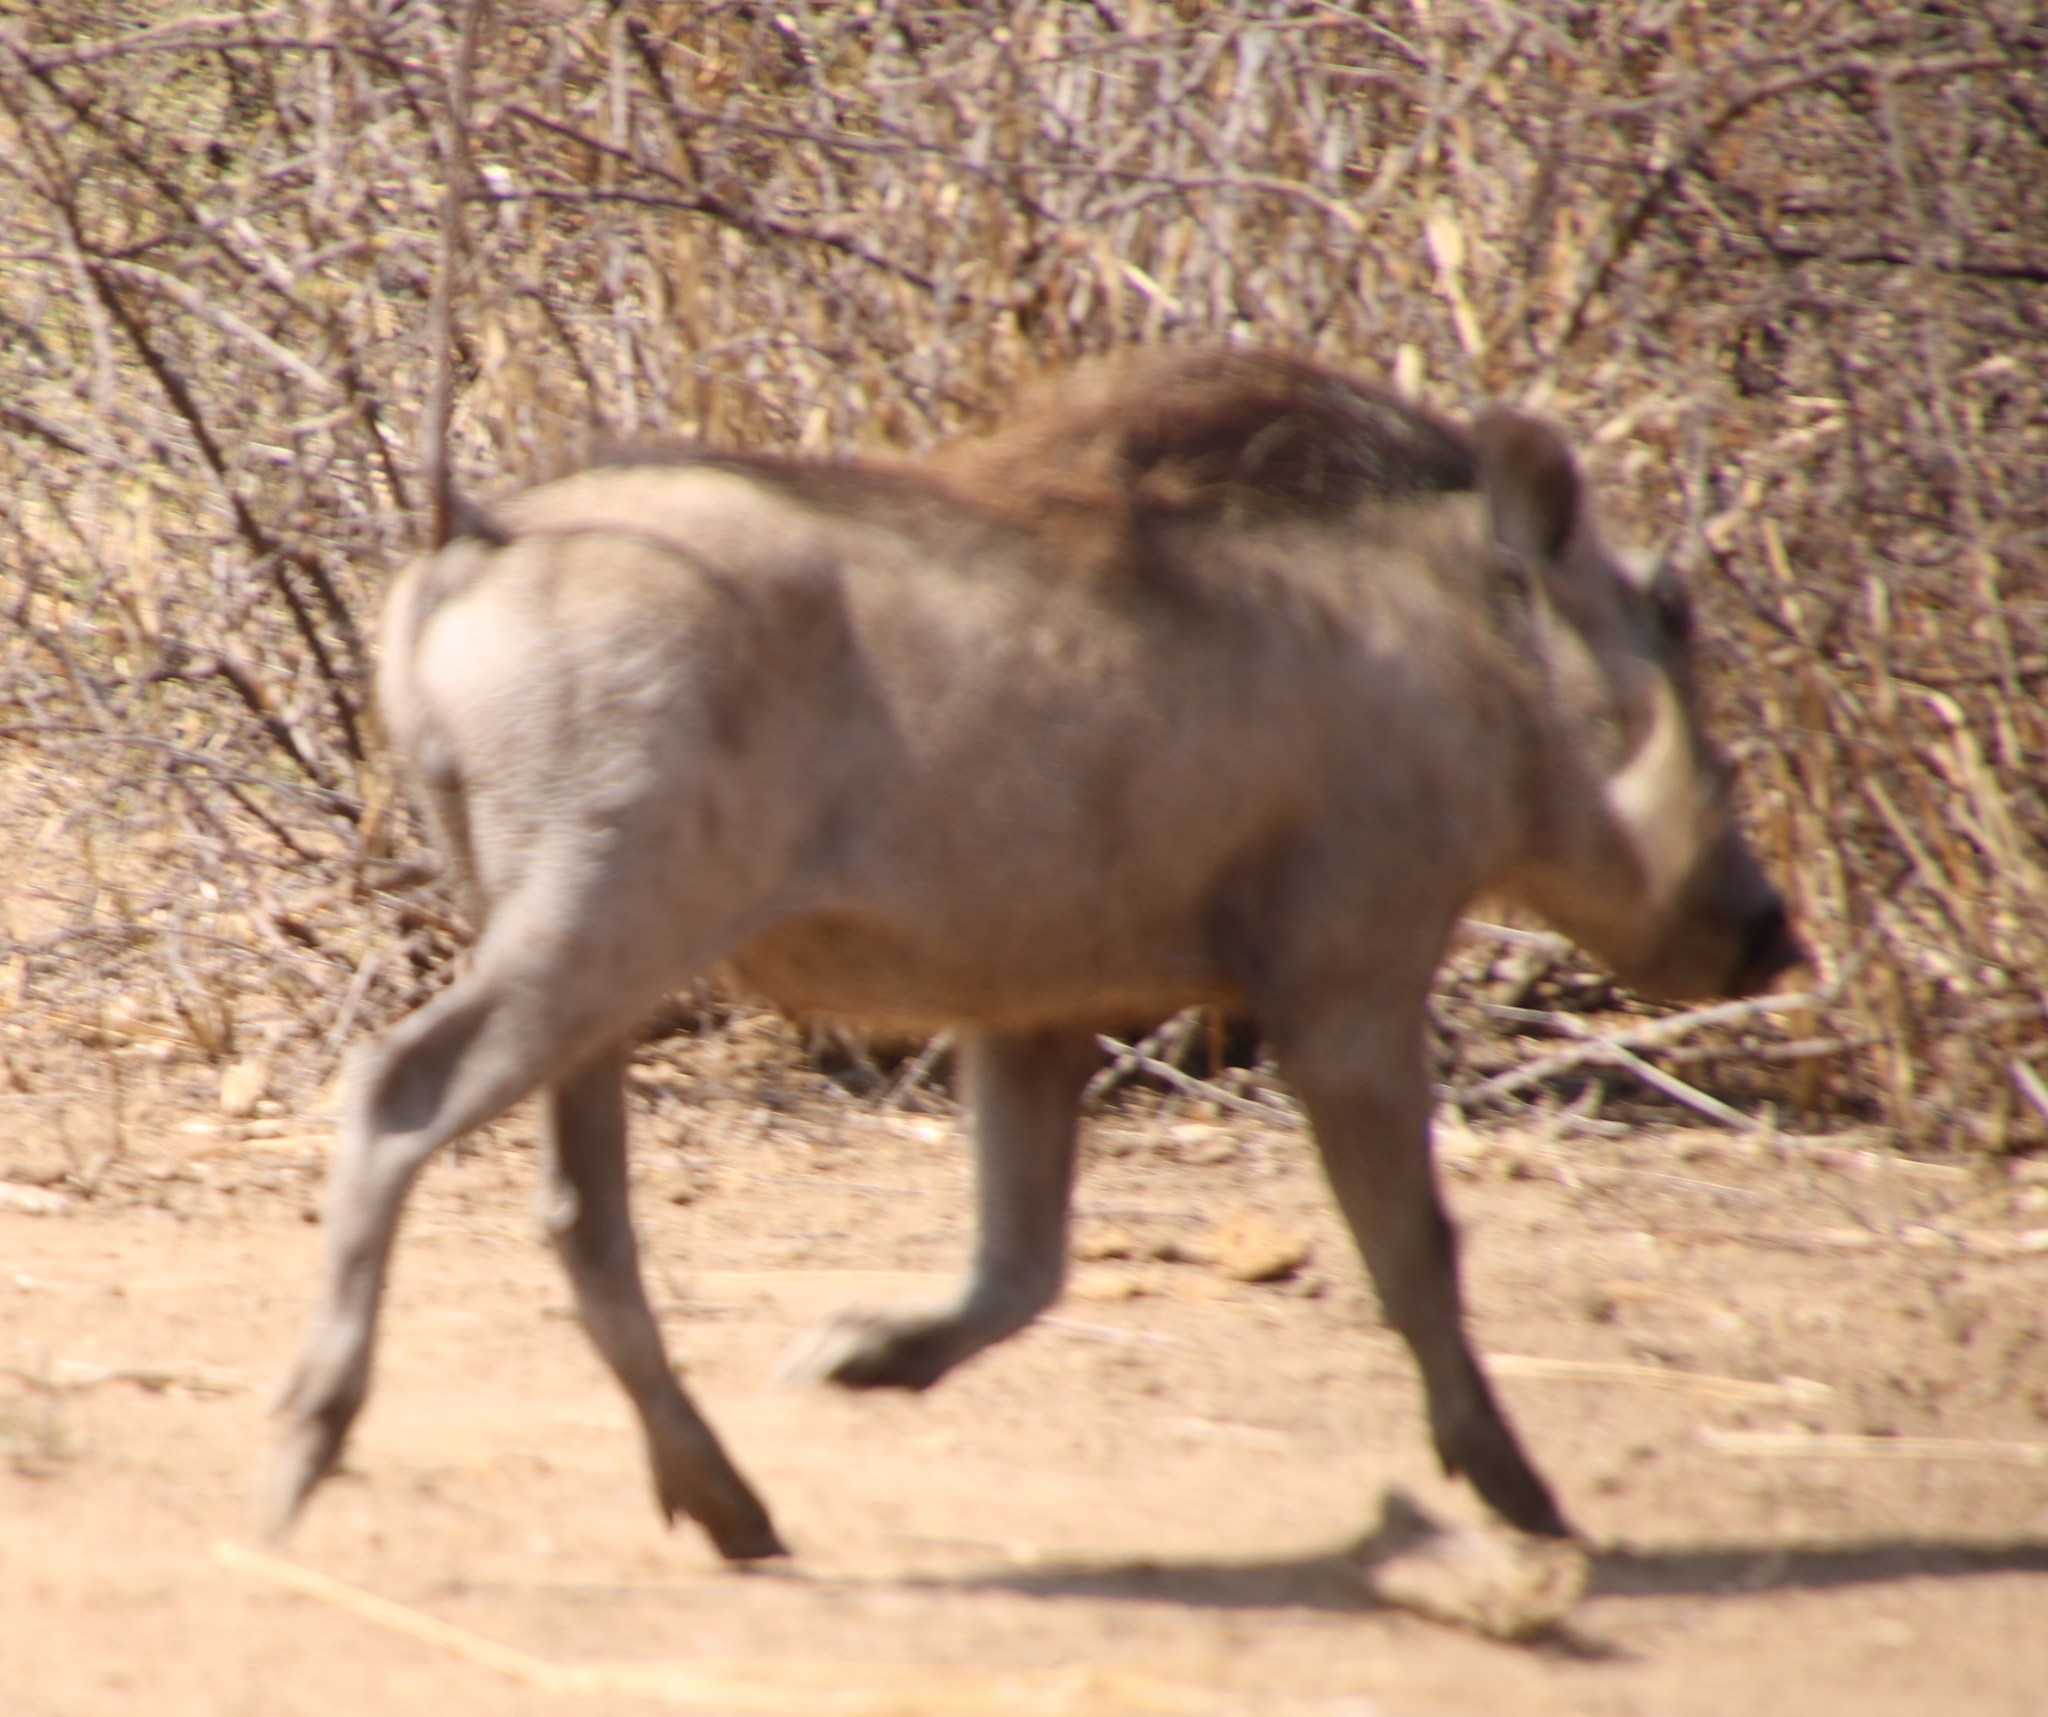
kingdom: Animalia
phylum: Chordata
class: Mammalia
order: Artiodactyla
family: Suidae
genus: Phacochoerus
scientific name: Phacochoerus africanus
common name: Common warthog
